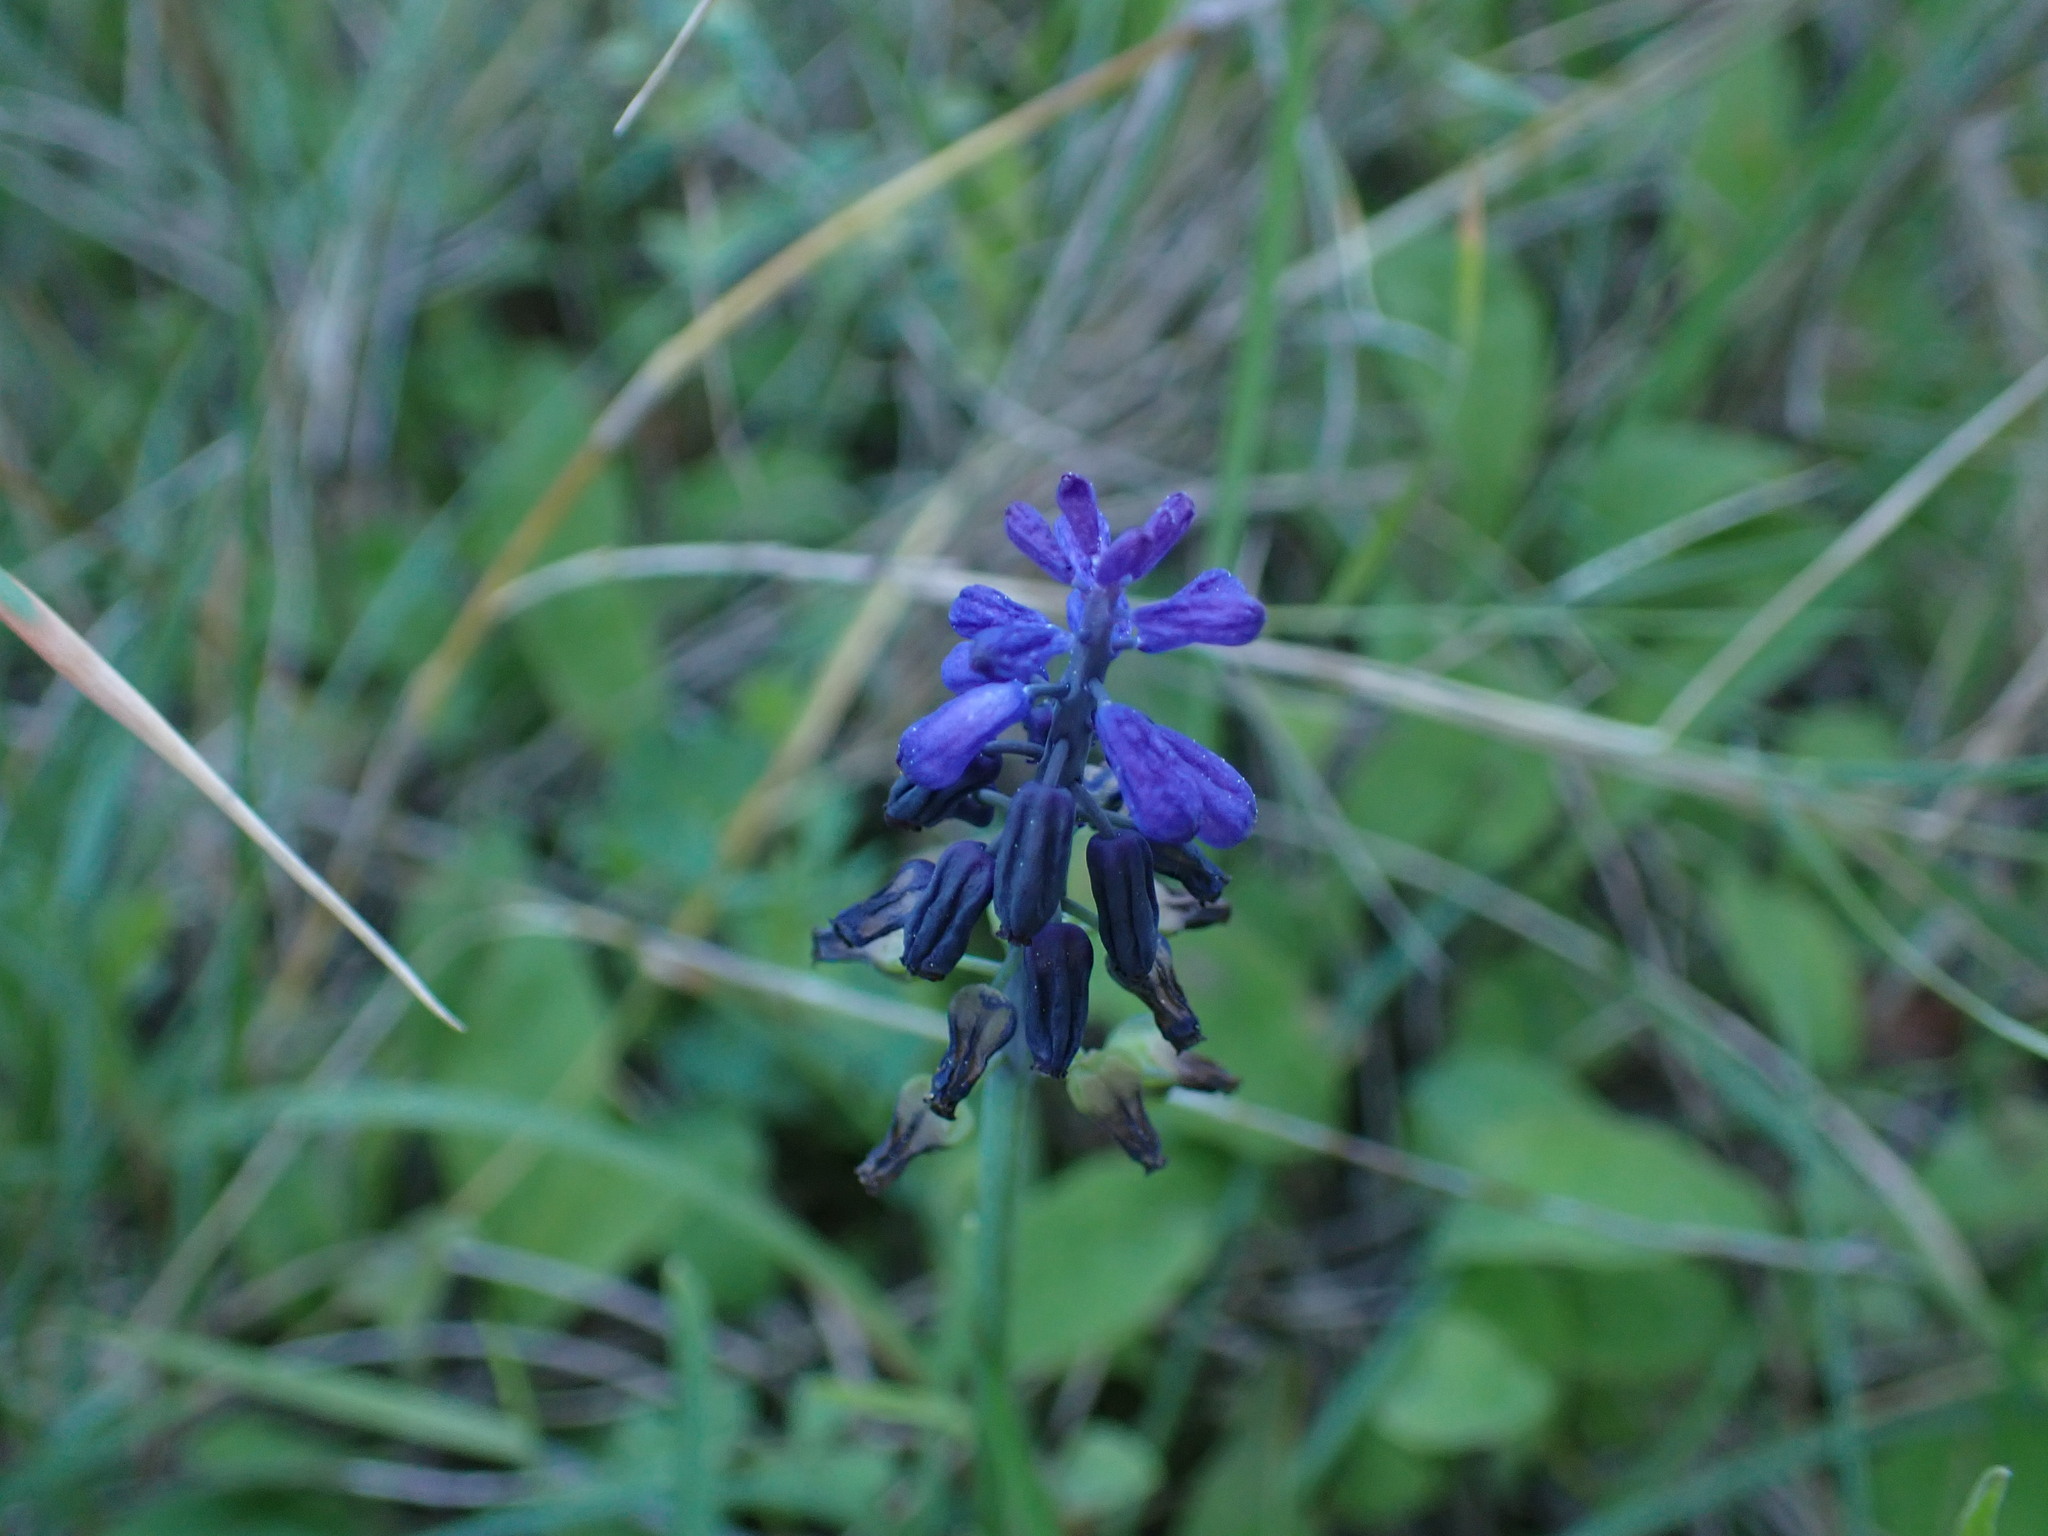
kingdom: Plantae
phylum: Tracheophyta
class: Liliopsida
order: Asparagales
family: Asparagaceae
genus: Muscari
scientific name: Muscari neglectum
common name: Grape-hyacinth
